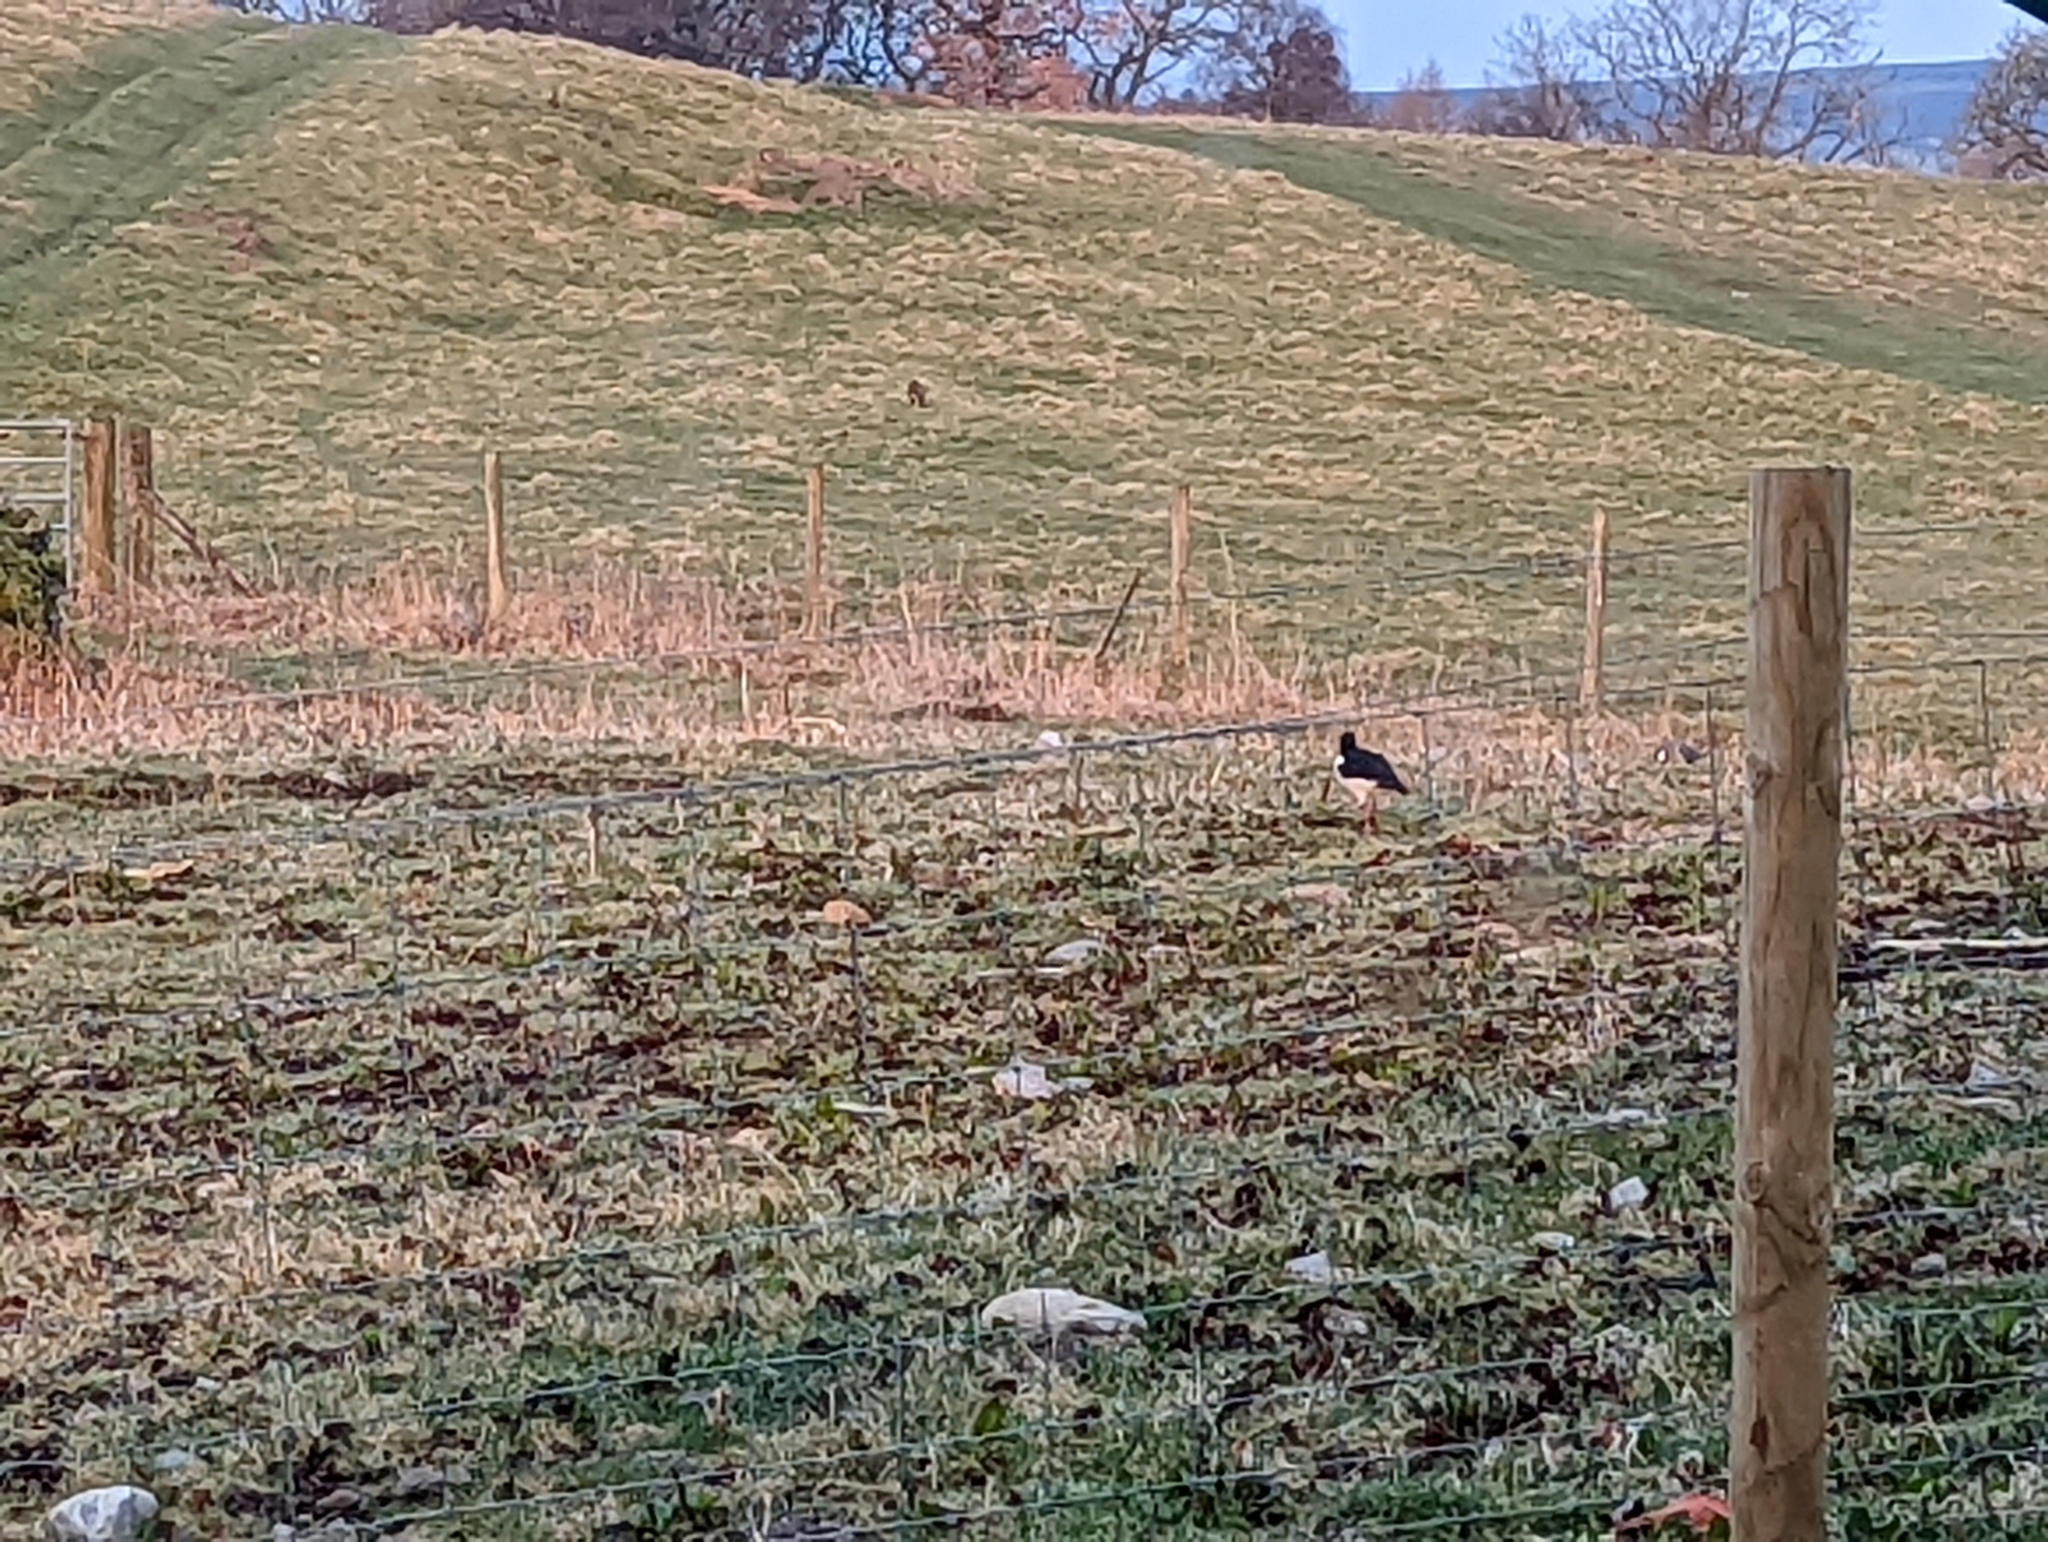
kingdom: Animalia
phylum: Chordata
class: Aves
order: Charadriiformes
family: Haematopodidae
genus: Haematopus
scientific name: Haematopus ostralegus
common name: Eurasian oystercatcher
